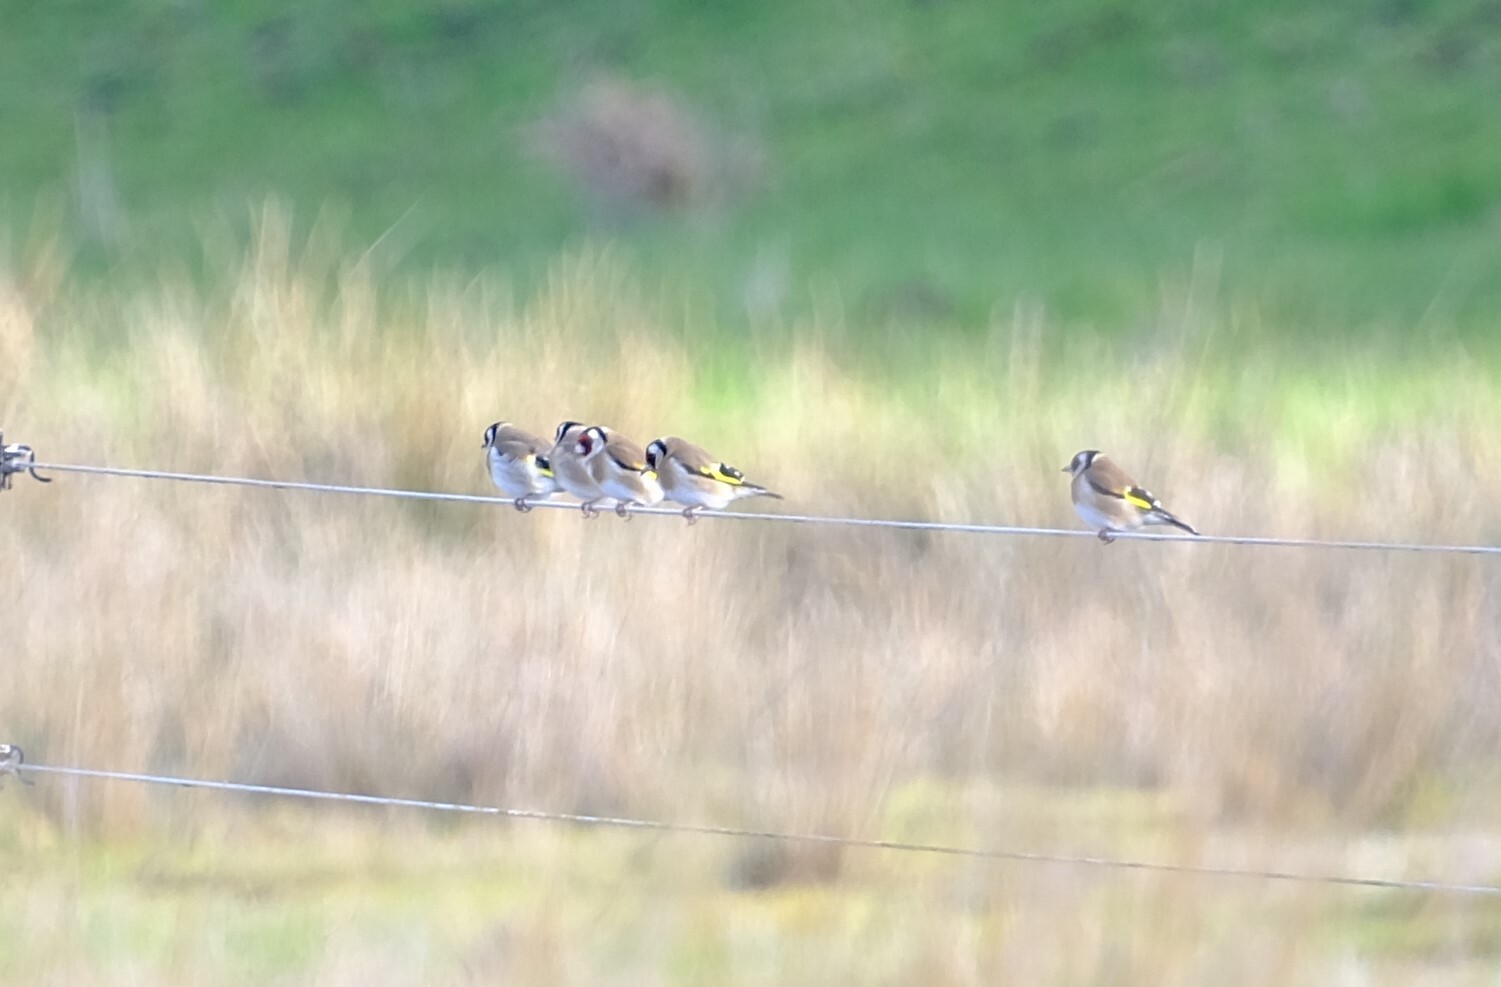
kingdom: Animalia
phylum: Chordata
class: Aves
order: Passeriformes
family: Fringillidae
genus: Carduelis
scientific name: Carduelis carduelis
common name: European goldfinch
